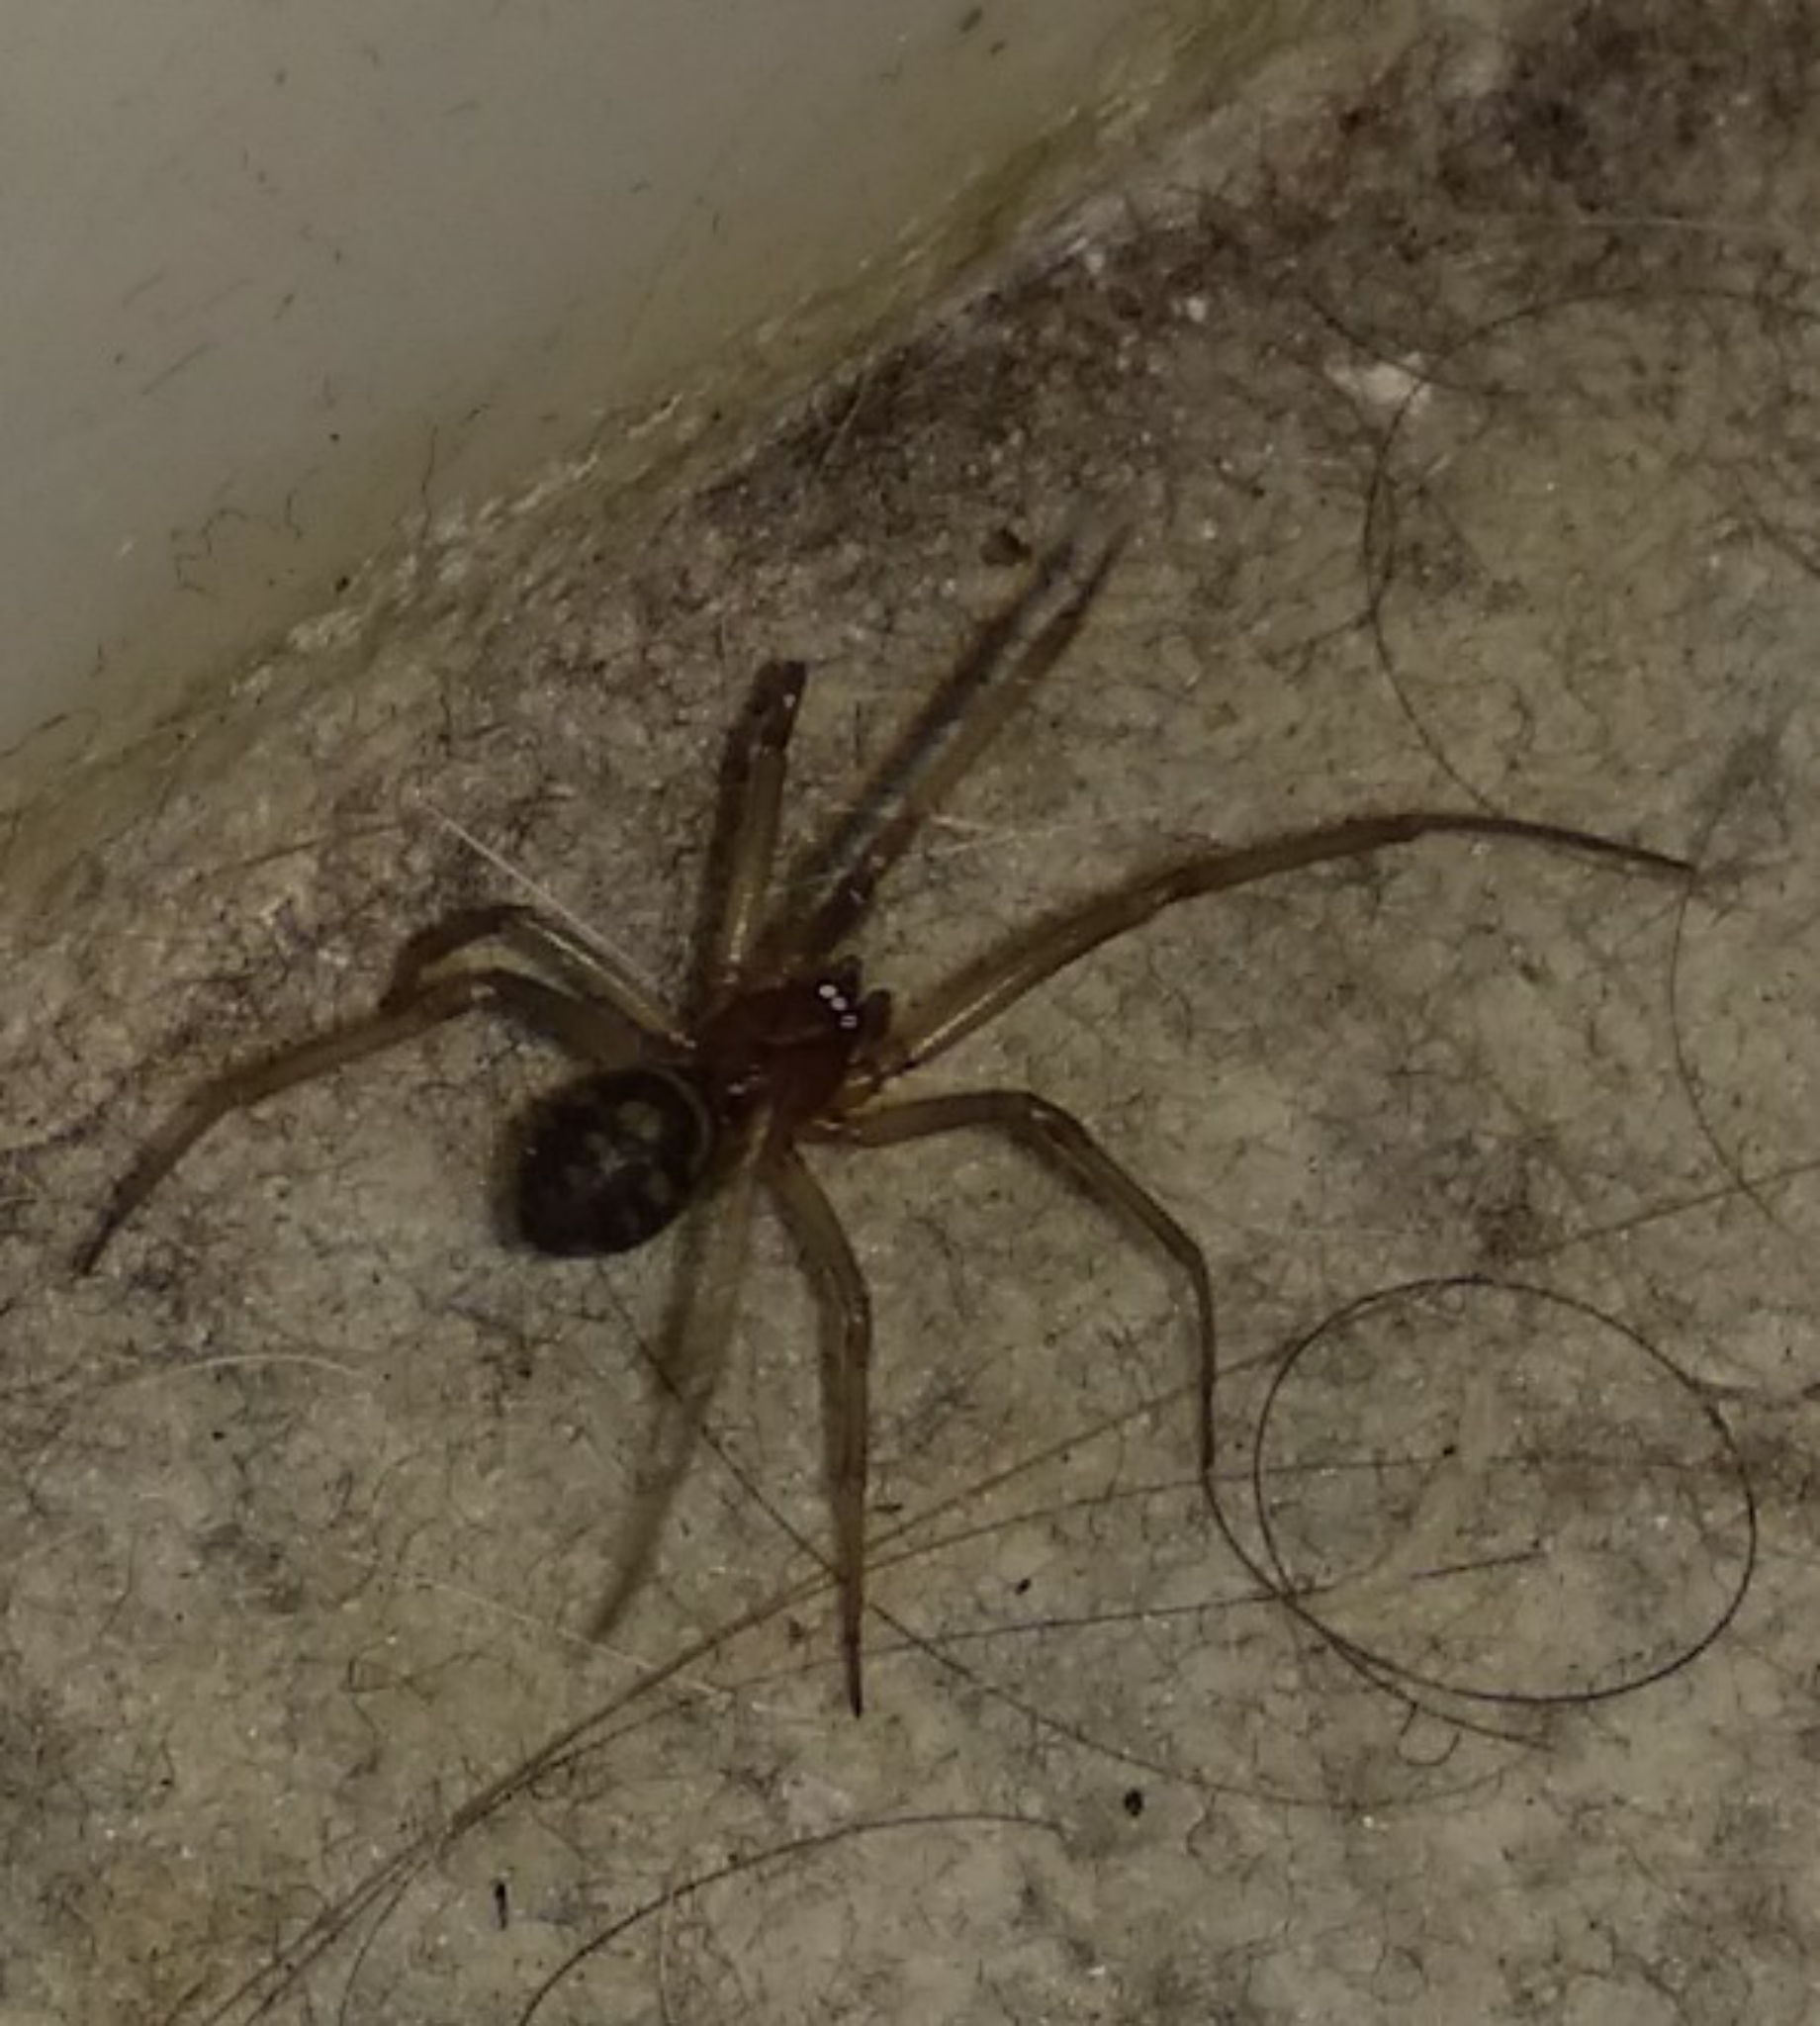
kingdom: Animalia
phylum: Arthropoda
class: Arachnida
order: Araneae
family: Theridiidae
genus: Steatoda
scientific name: Steatoda grossa
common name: False black widow
